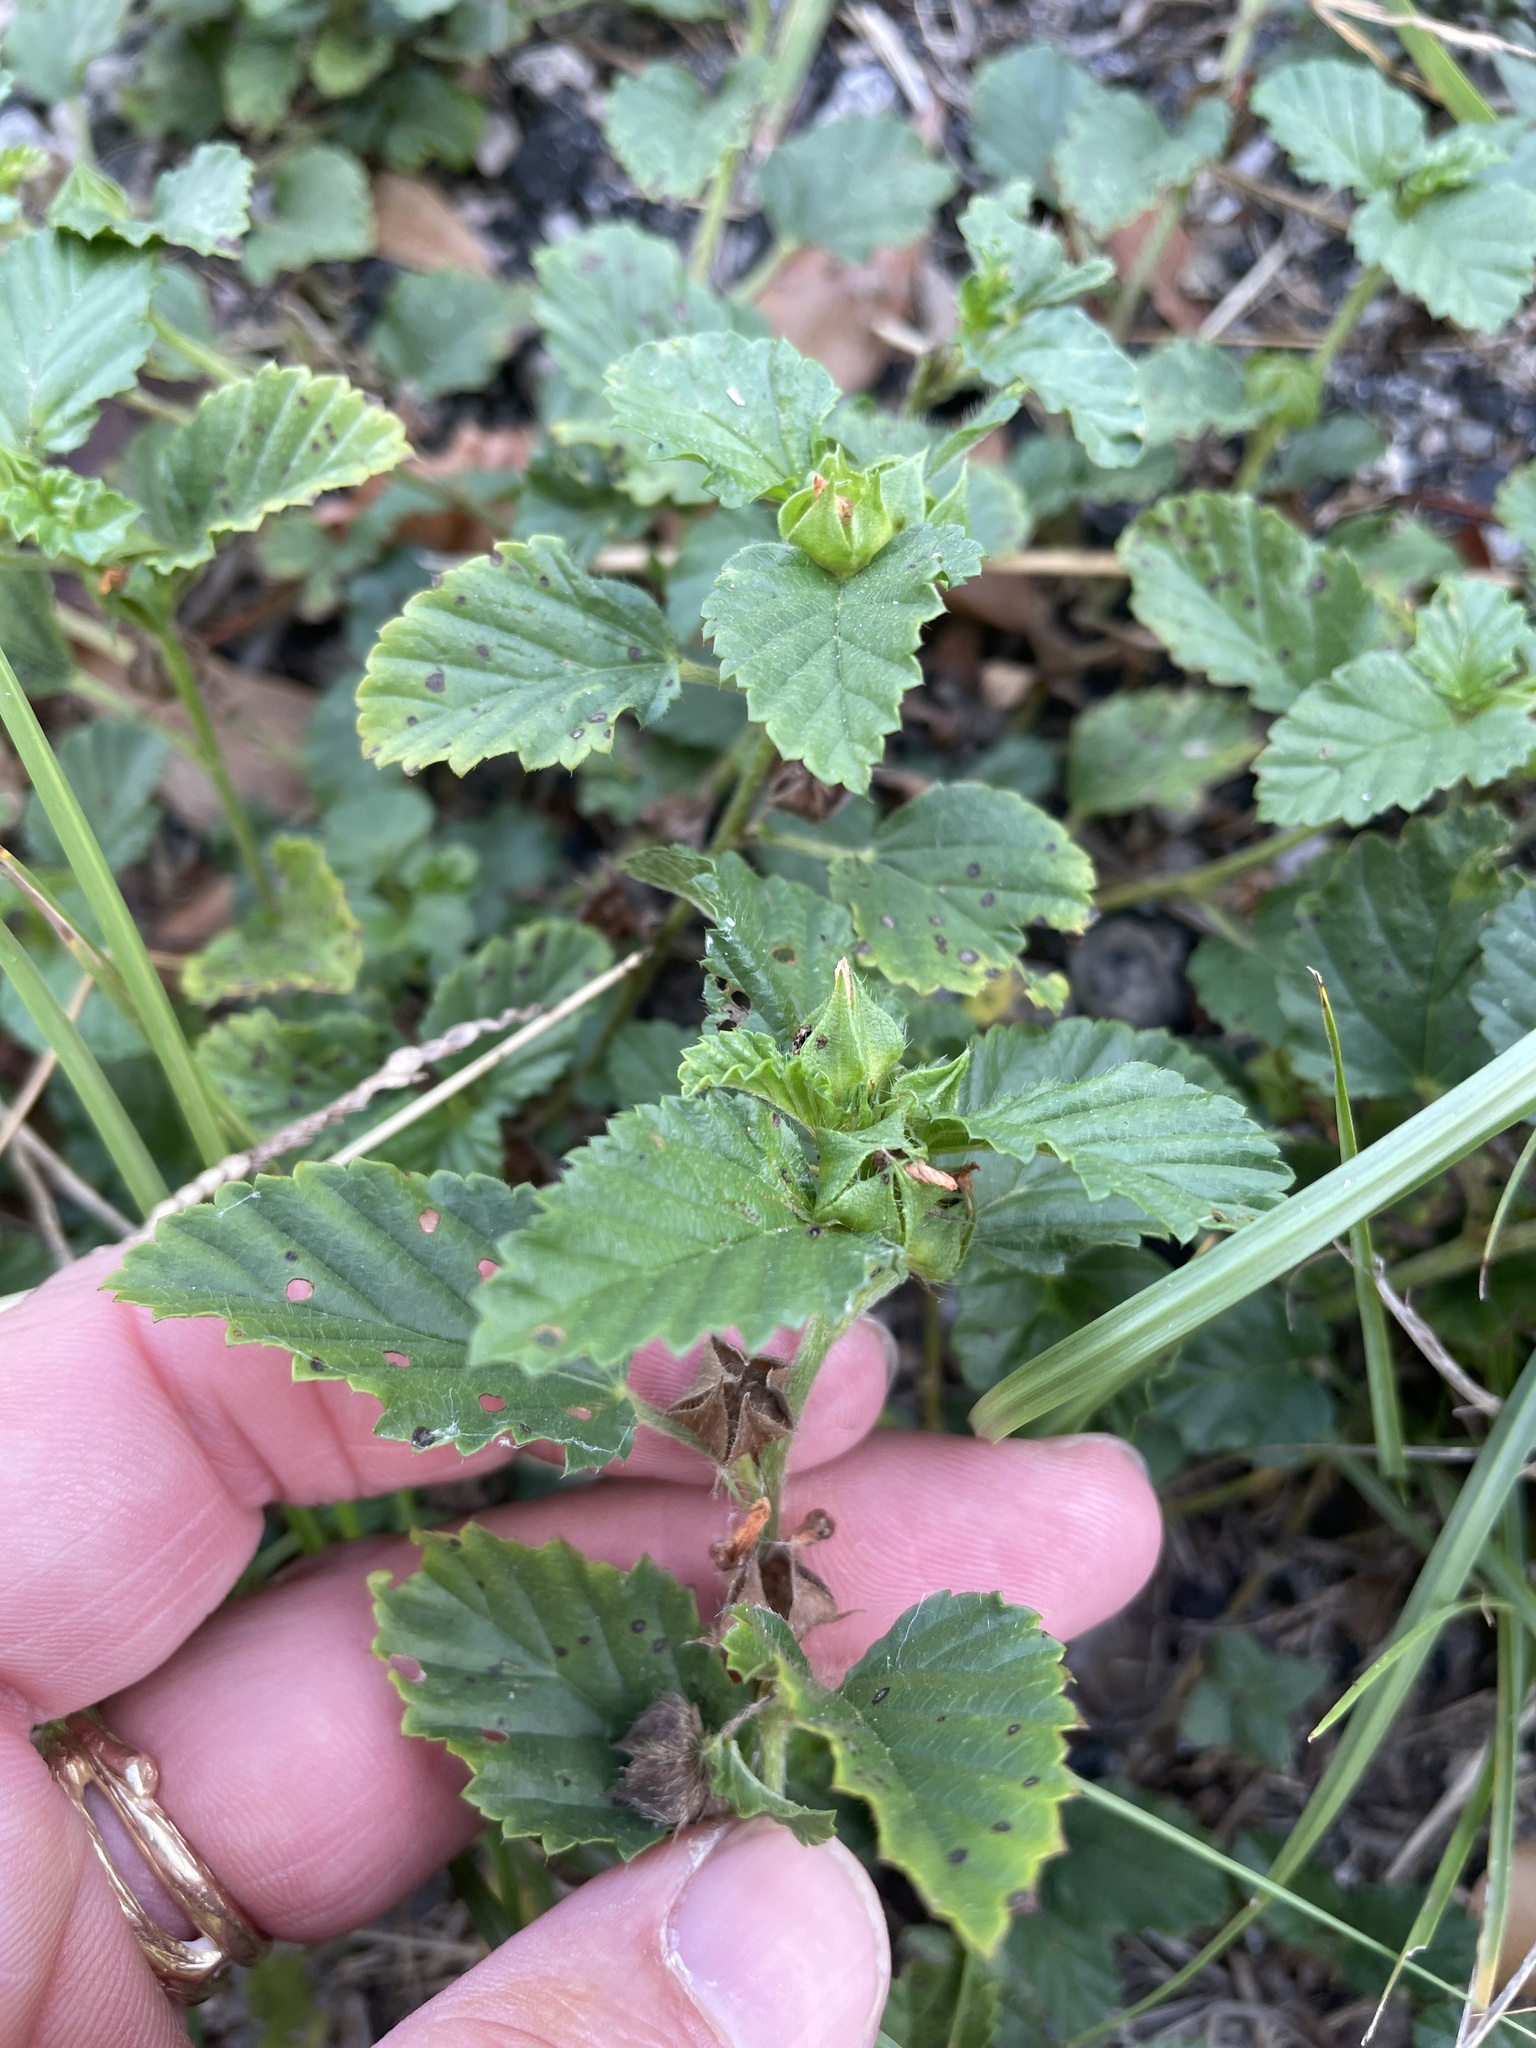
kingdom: Plantae
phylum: Tracheophyta
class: Magnoliopsida
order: Malvales
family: Malvaceae
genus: Malvastrum
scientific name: Malvastrum coromandelianum
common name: Threelobe false mallow
